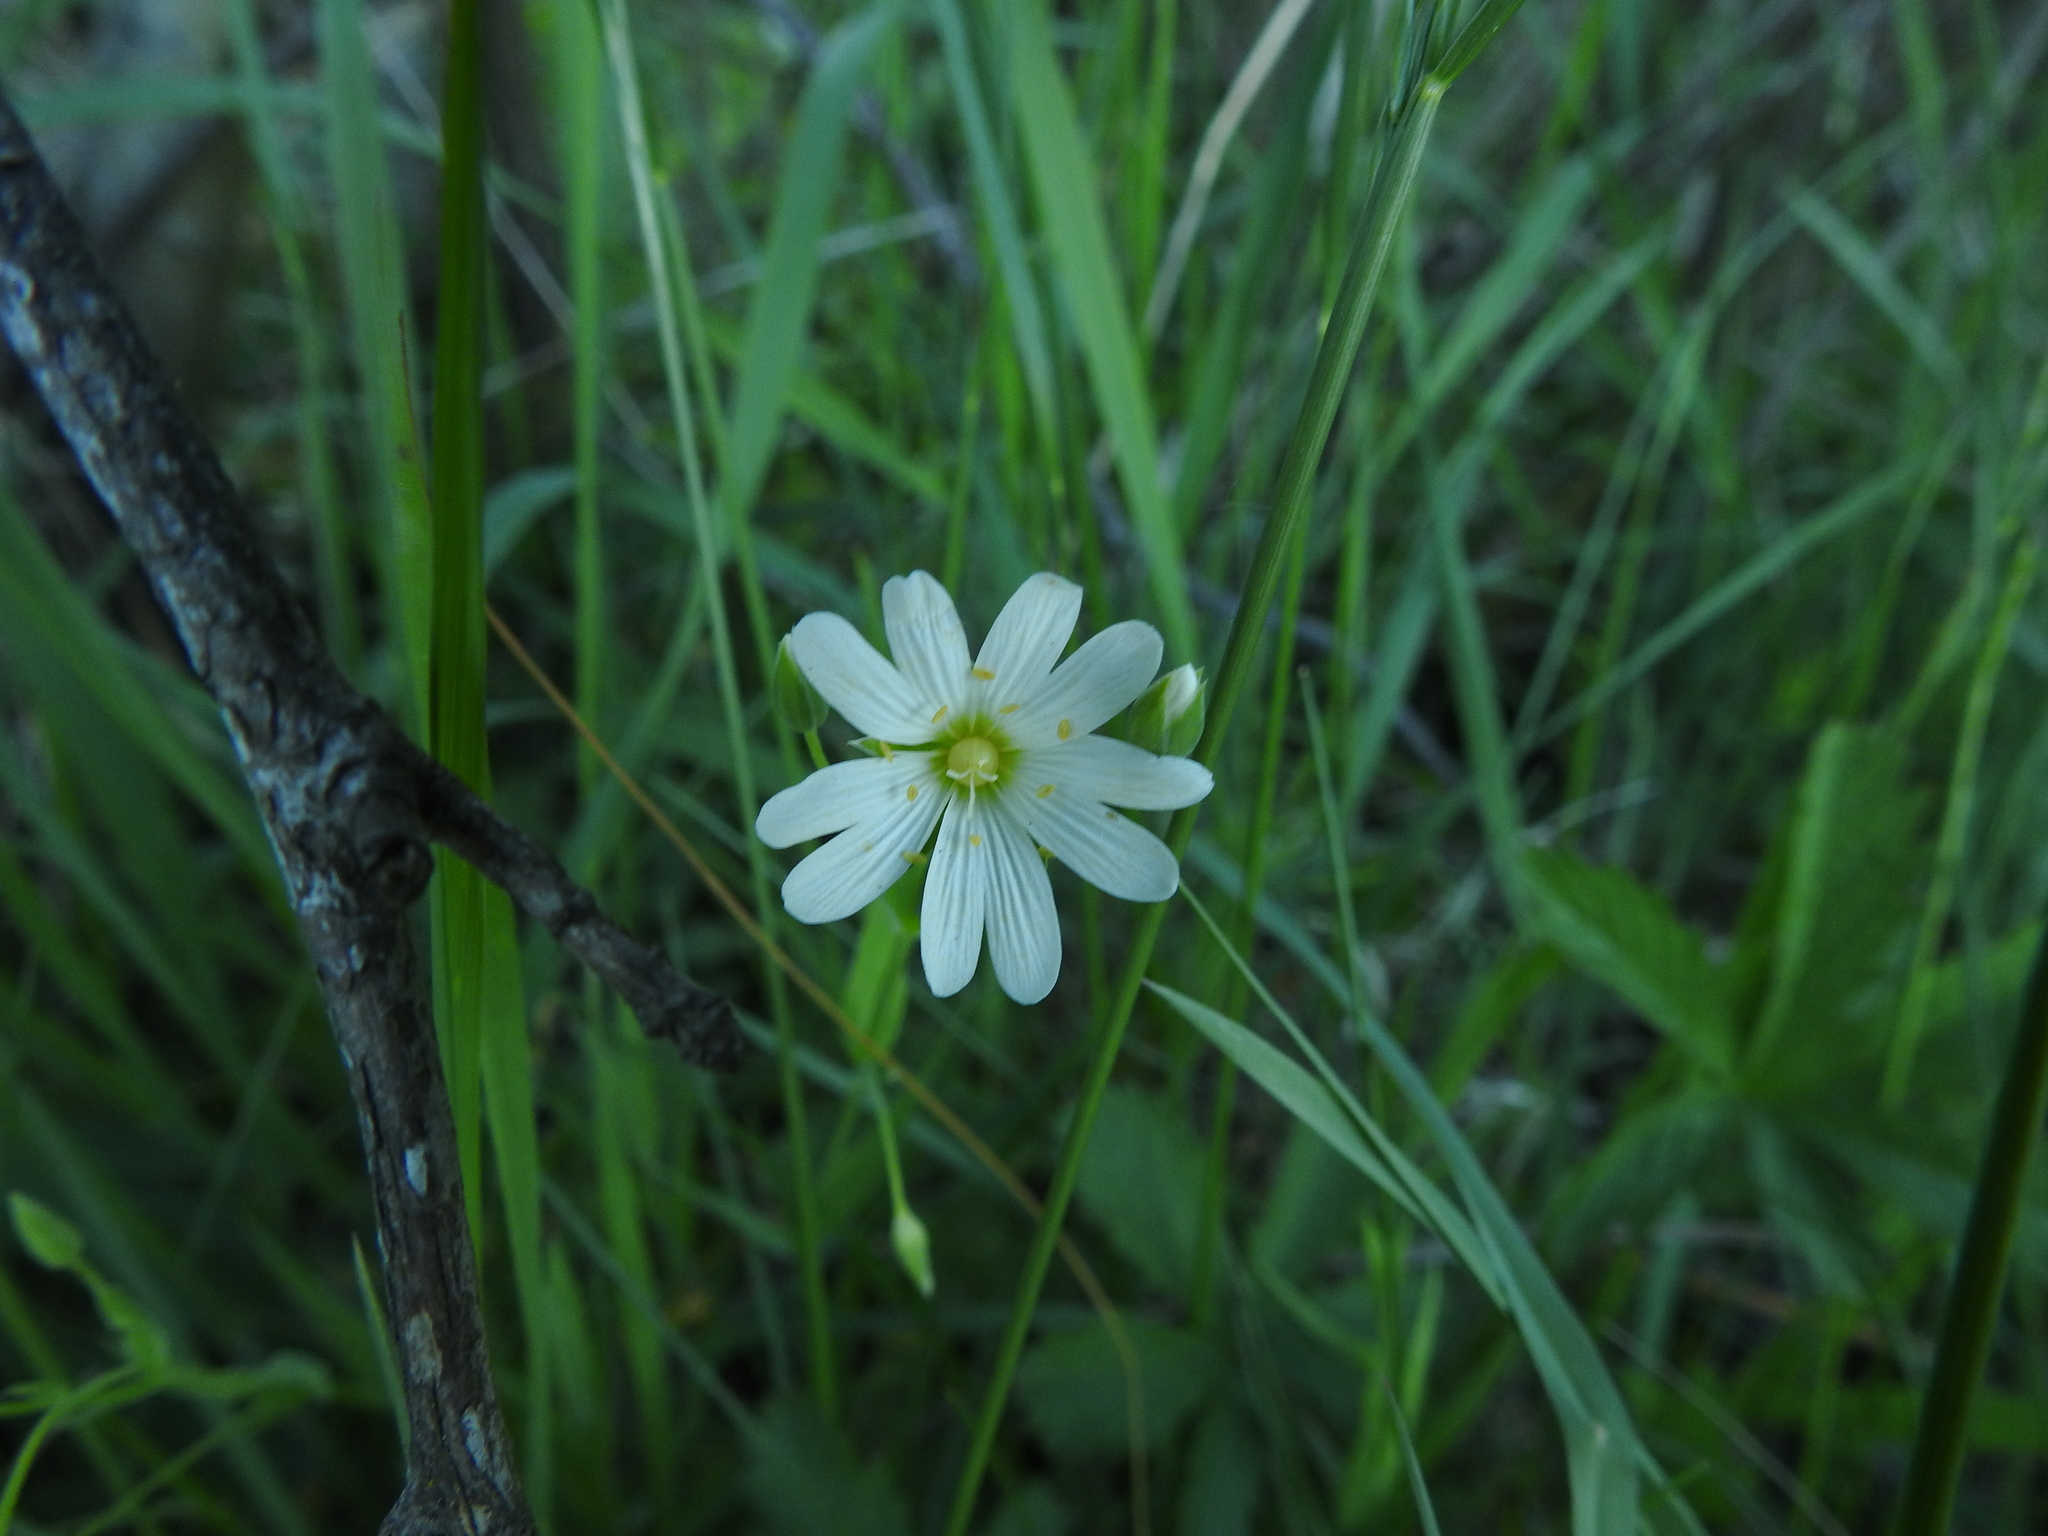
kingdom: Plantae
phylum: Tracheophyta
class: Magnoliopsida
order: Caryophyllales
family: Caryophyllaceae
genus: Rabelera
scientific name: Rabelera holostea
